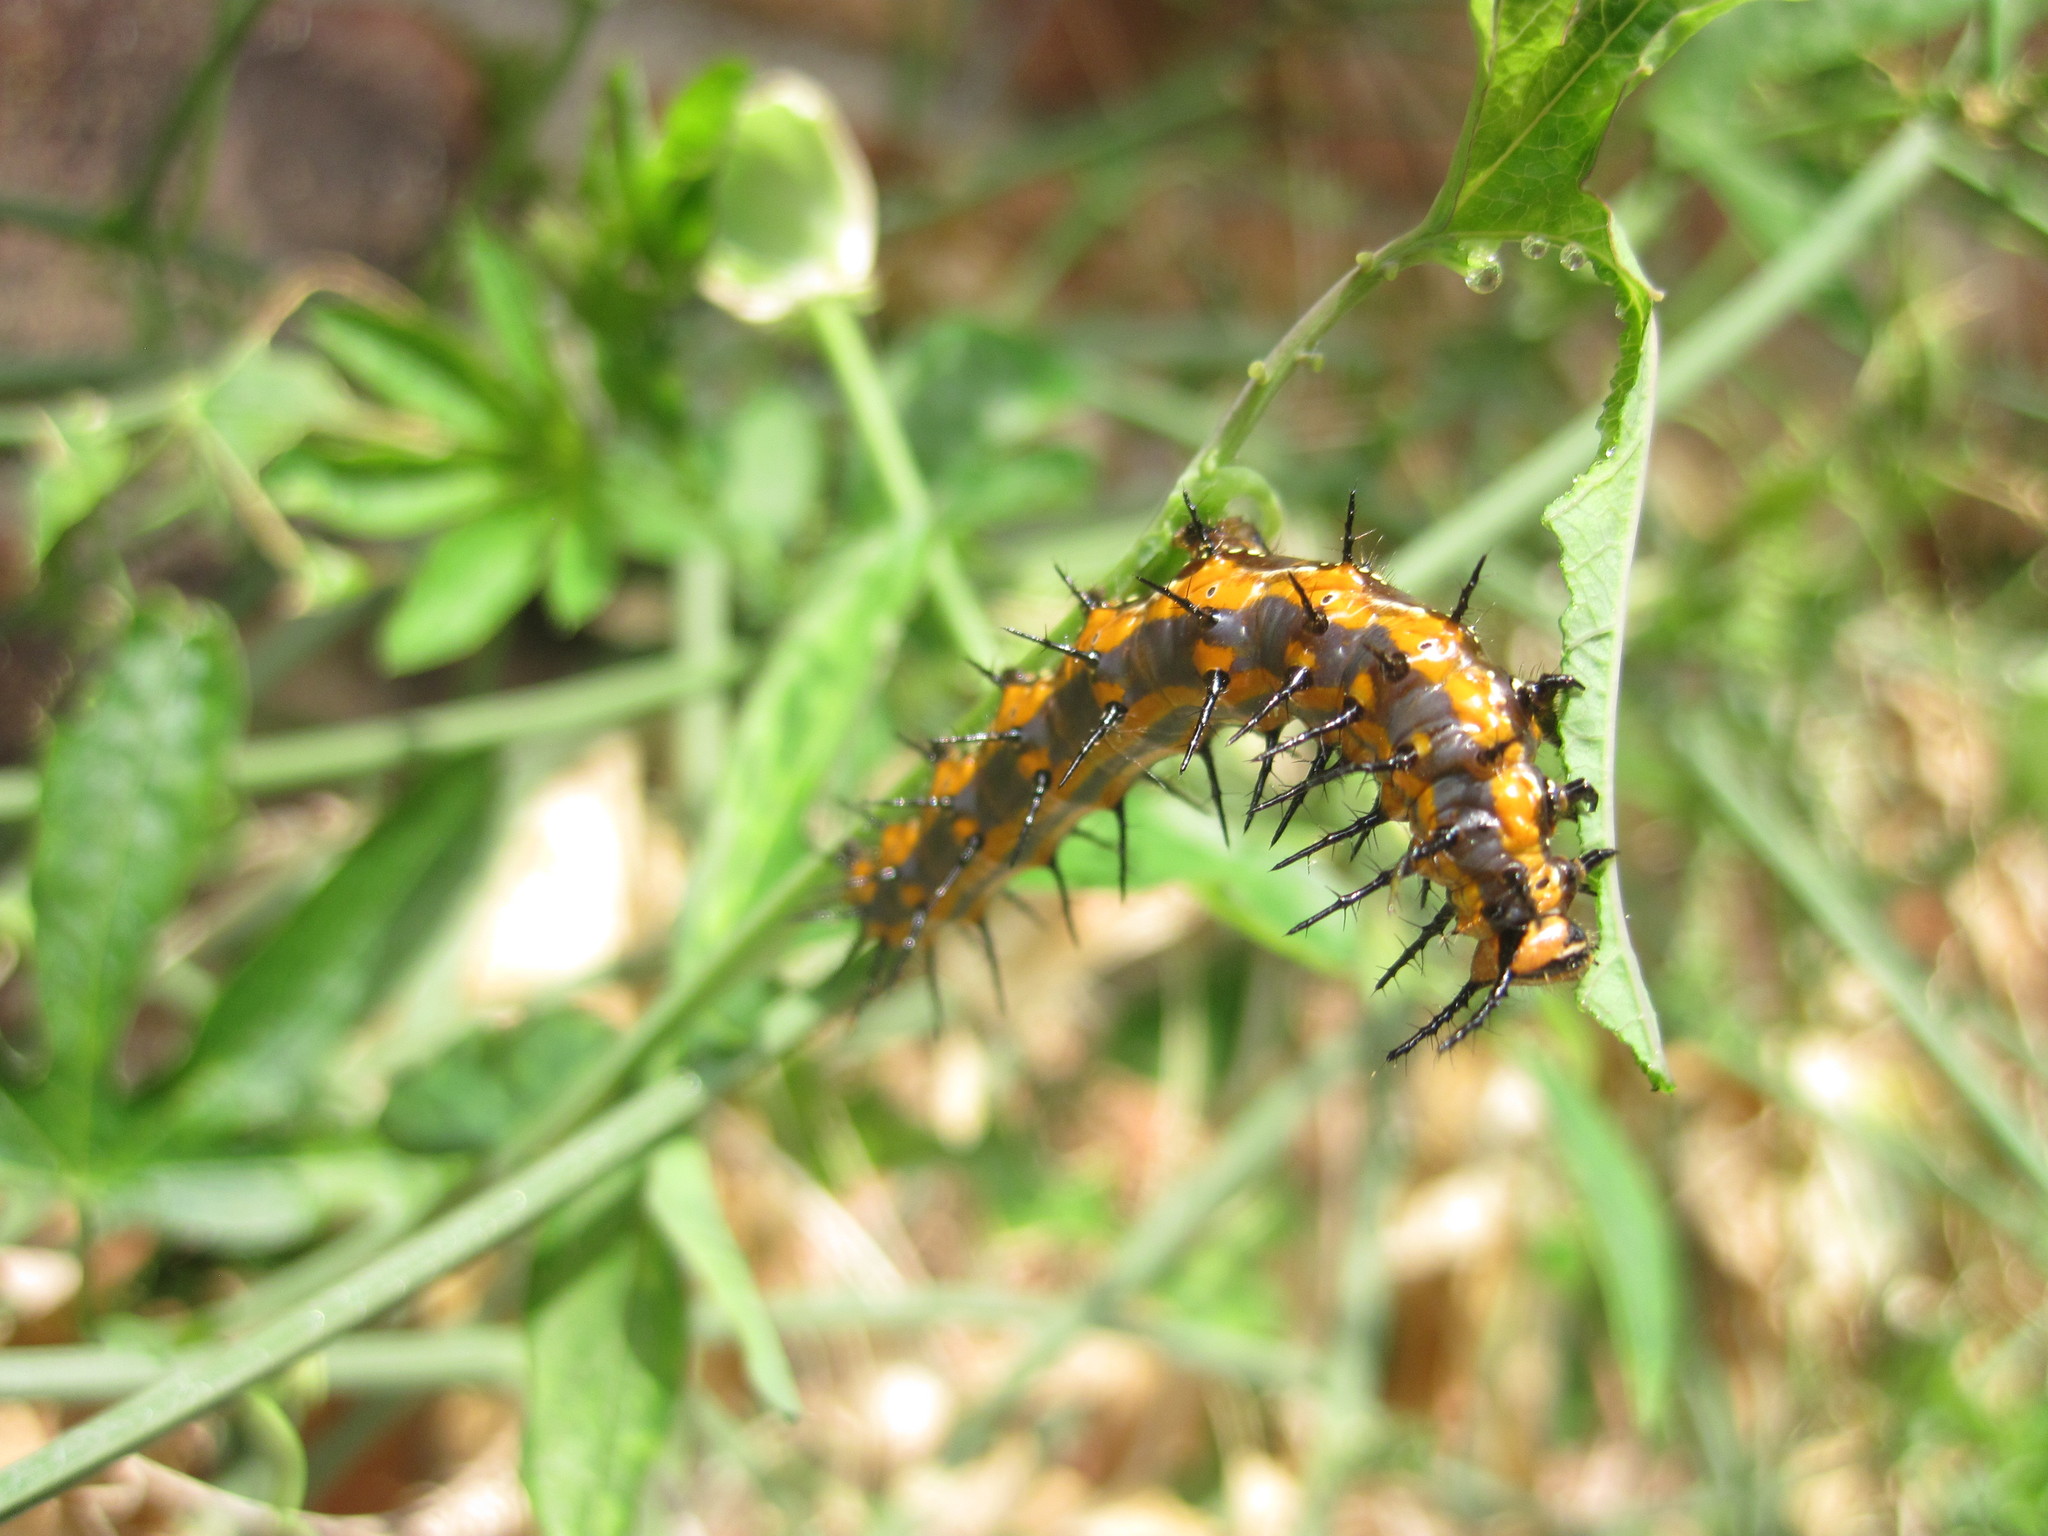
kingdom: Animalia
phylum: Arthropoda
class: Insecta
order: Lepidoptera
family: Nymphalidae
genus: Dione
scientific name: Dione vanillae
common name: Gulf fritillary
